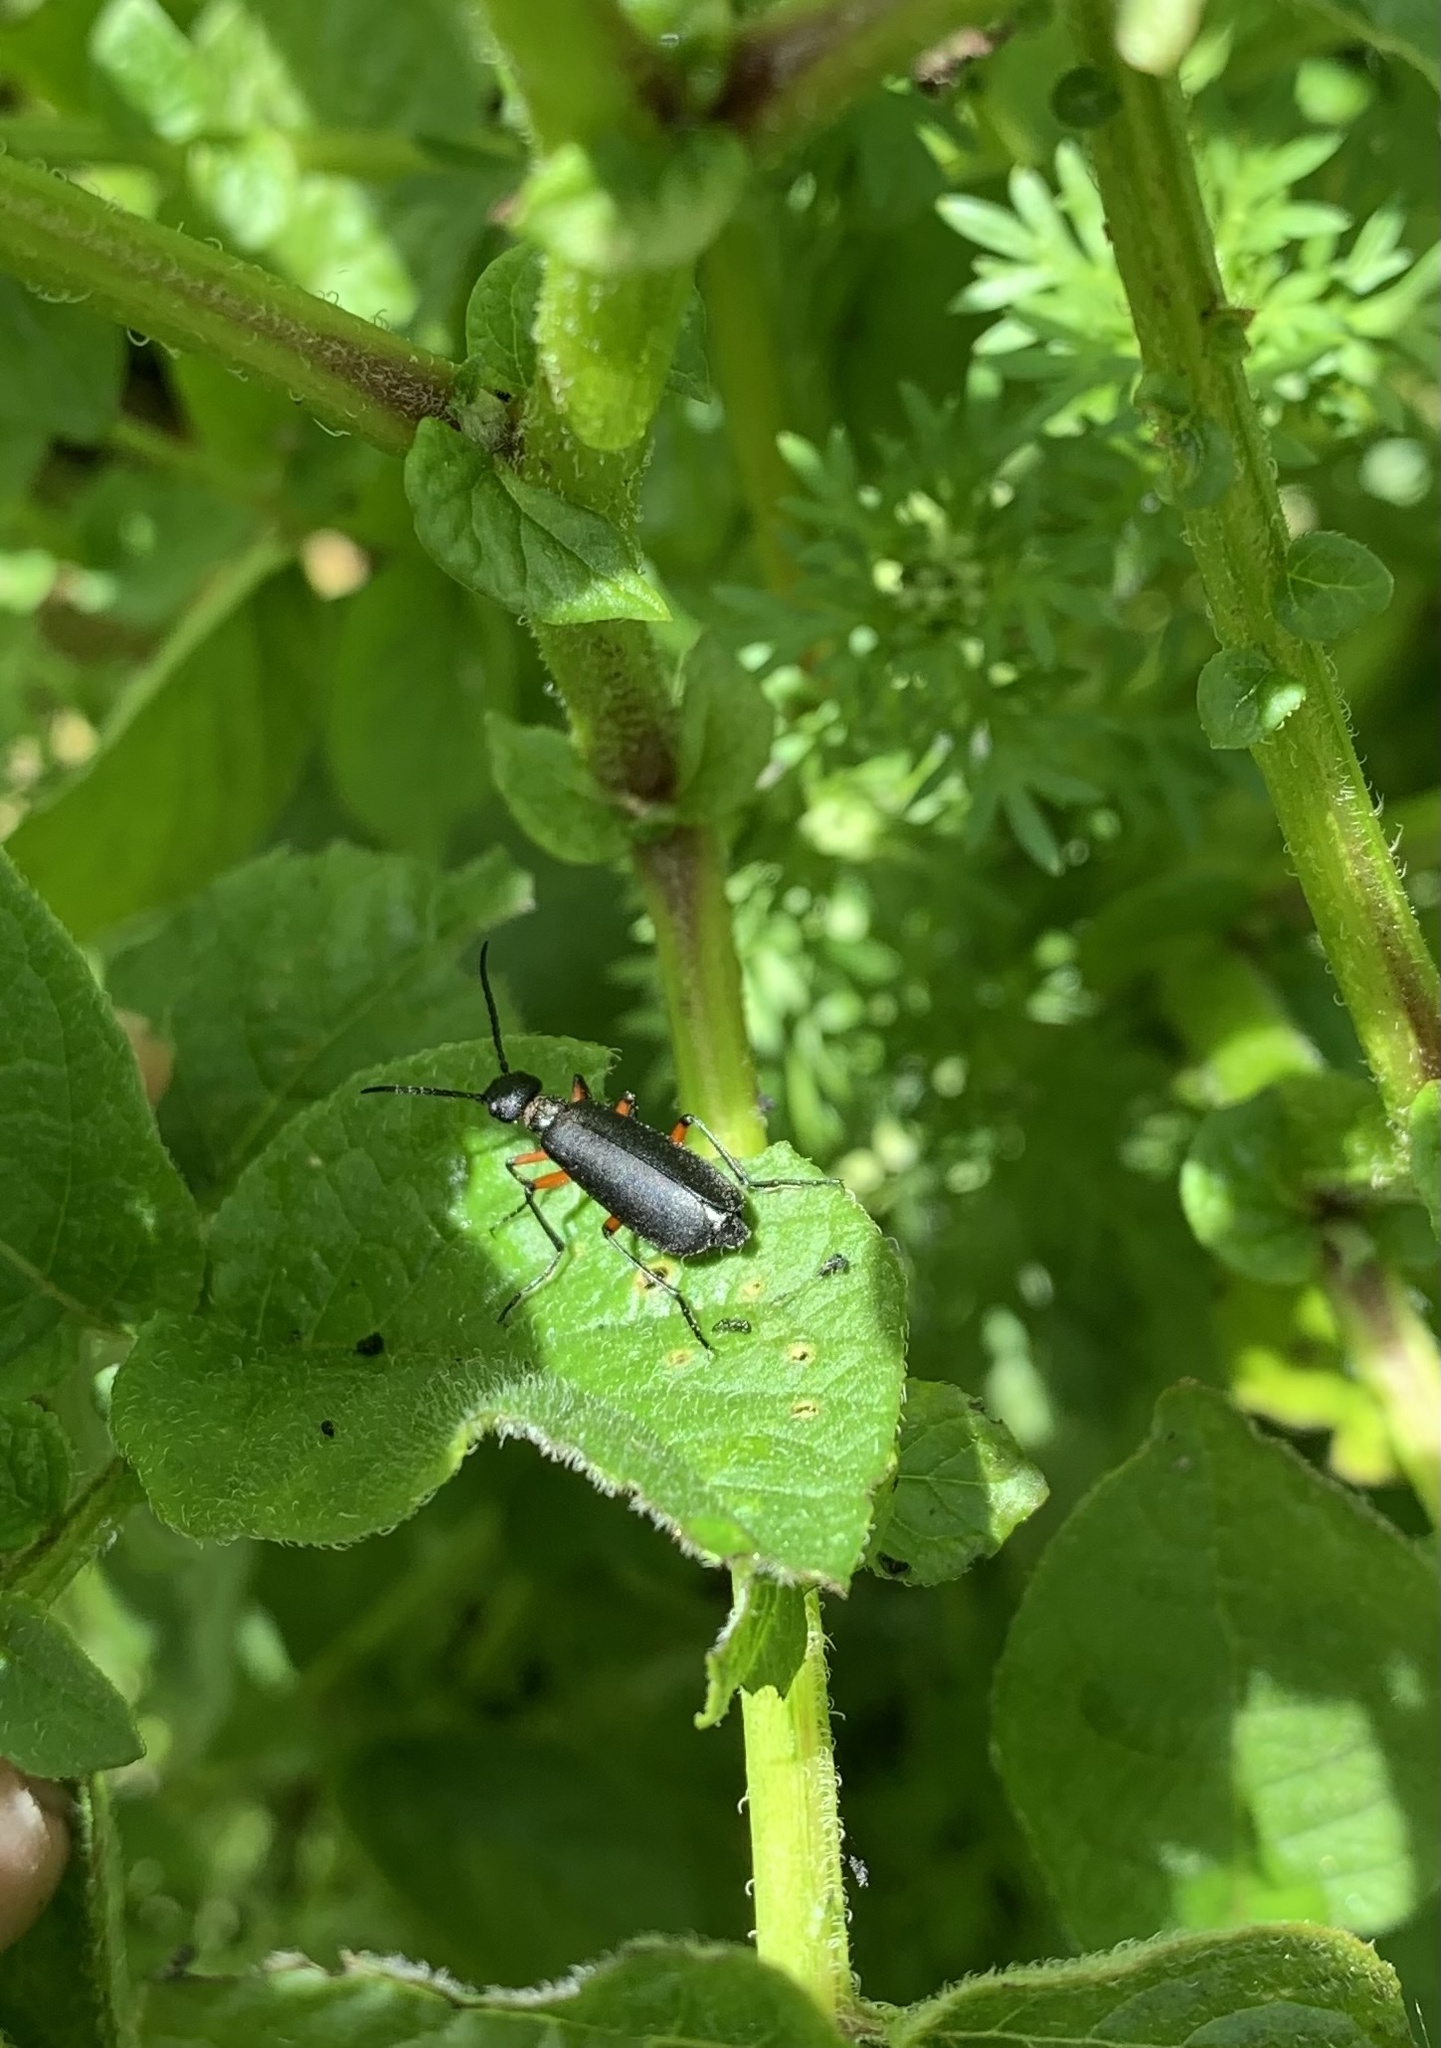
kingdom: Animalia
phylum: Arthropoda
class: Insecta
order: Coleoptera
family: Meloidae
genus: Epicauta
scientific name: Epicauta
